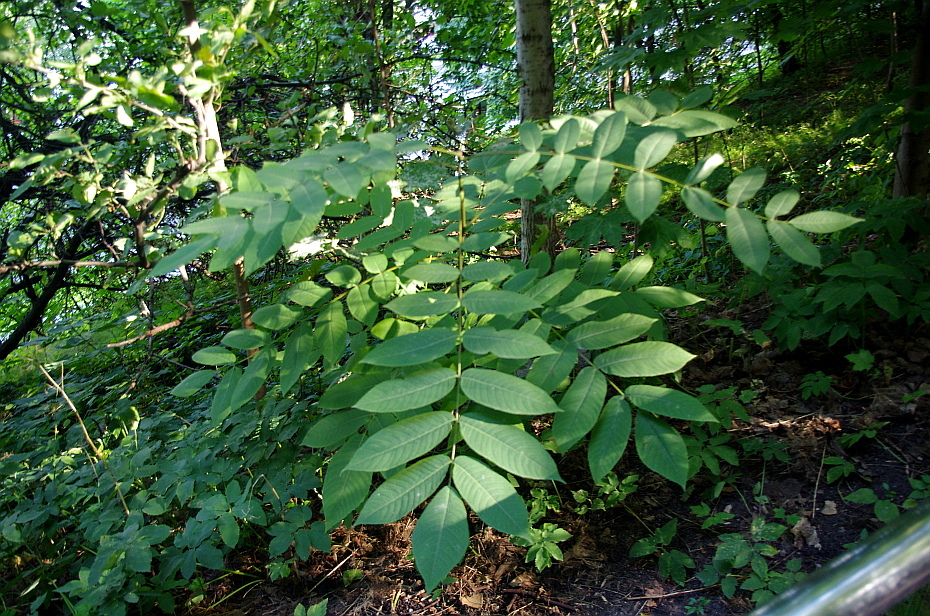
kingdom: Plantae
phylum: Tracheophyta
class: Magnoliopsida
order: Fagales
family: Juglandaceae
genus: Juglans
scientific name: Juglans mandshurica
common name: Manchurian walnut
